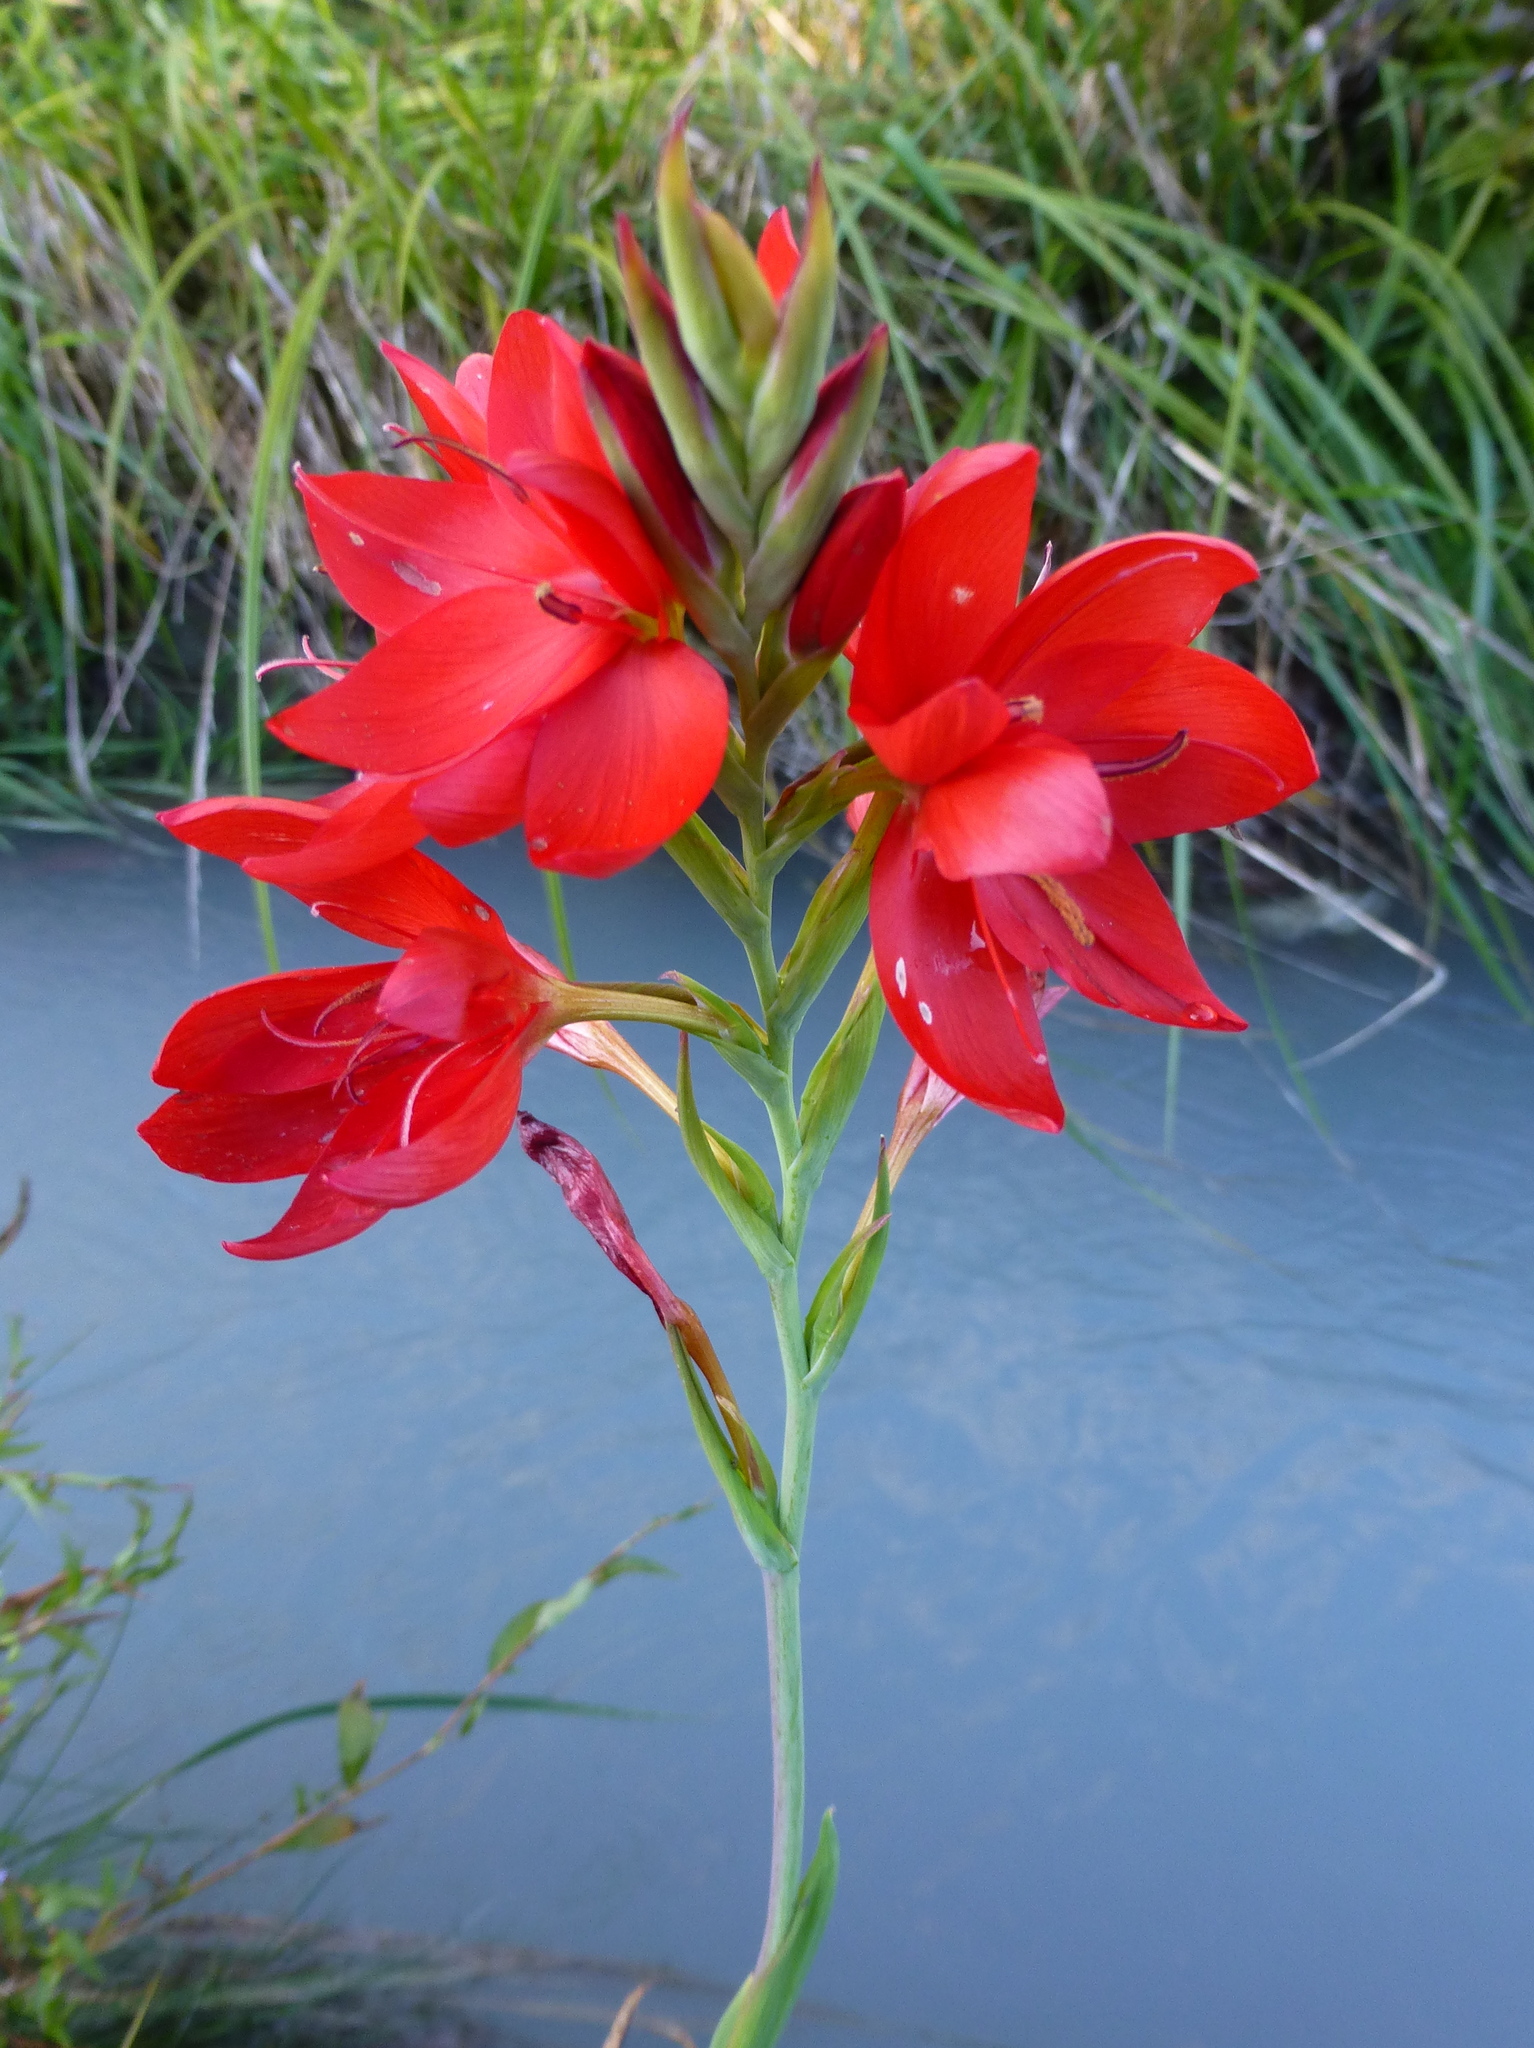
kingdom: Plantae
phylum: Tracheophyta
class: Liliopsida
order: Asparagales
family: Iridaceae
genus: Hesperantha
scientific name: Hesperantha coccinea
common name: River-lily
